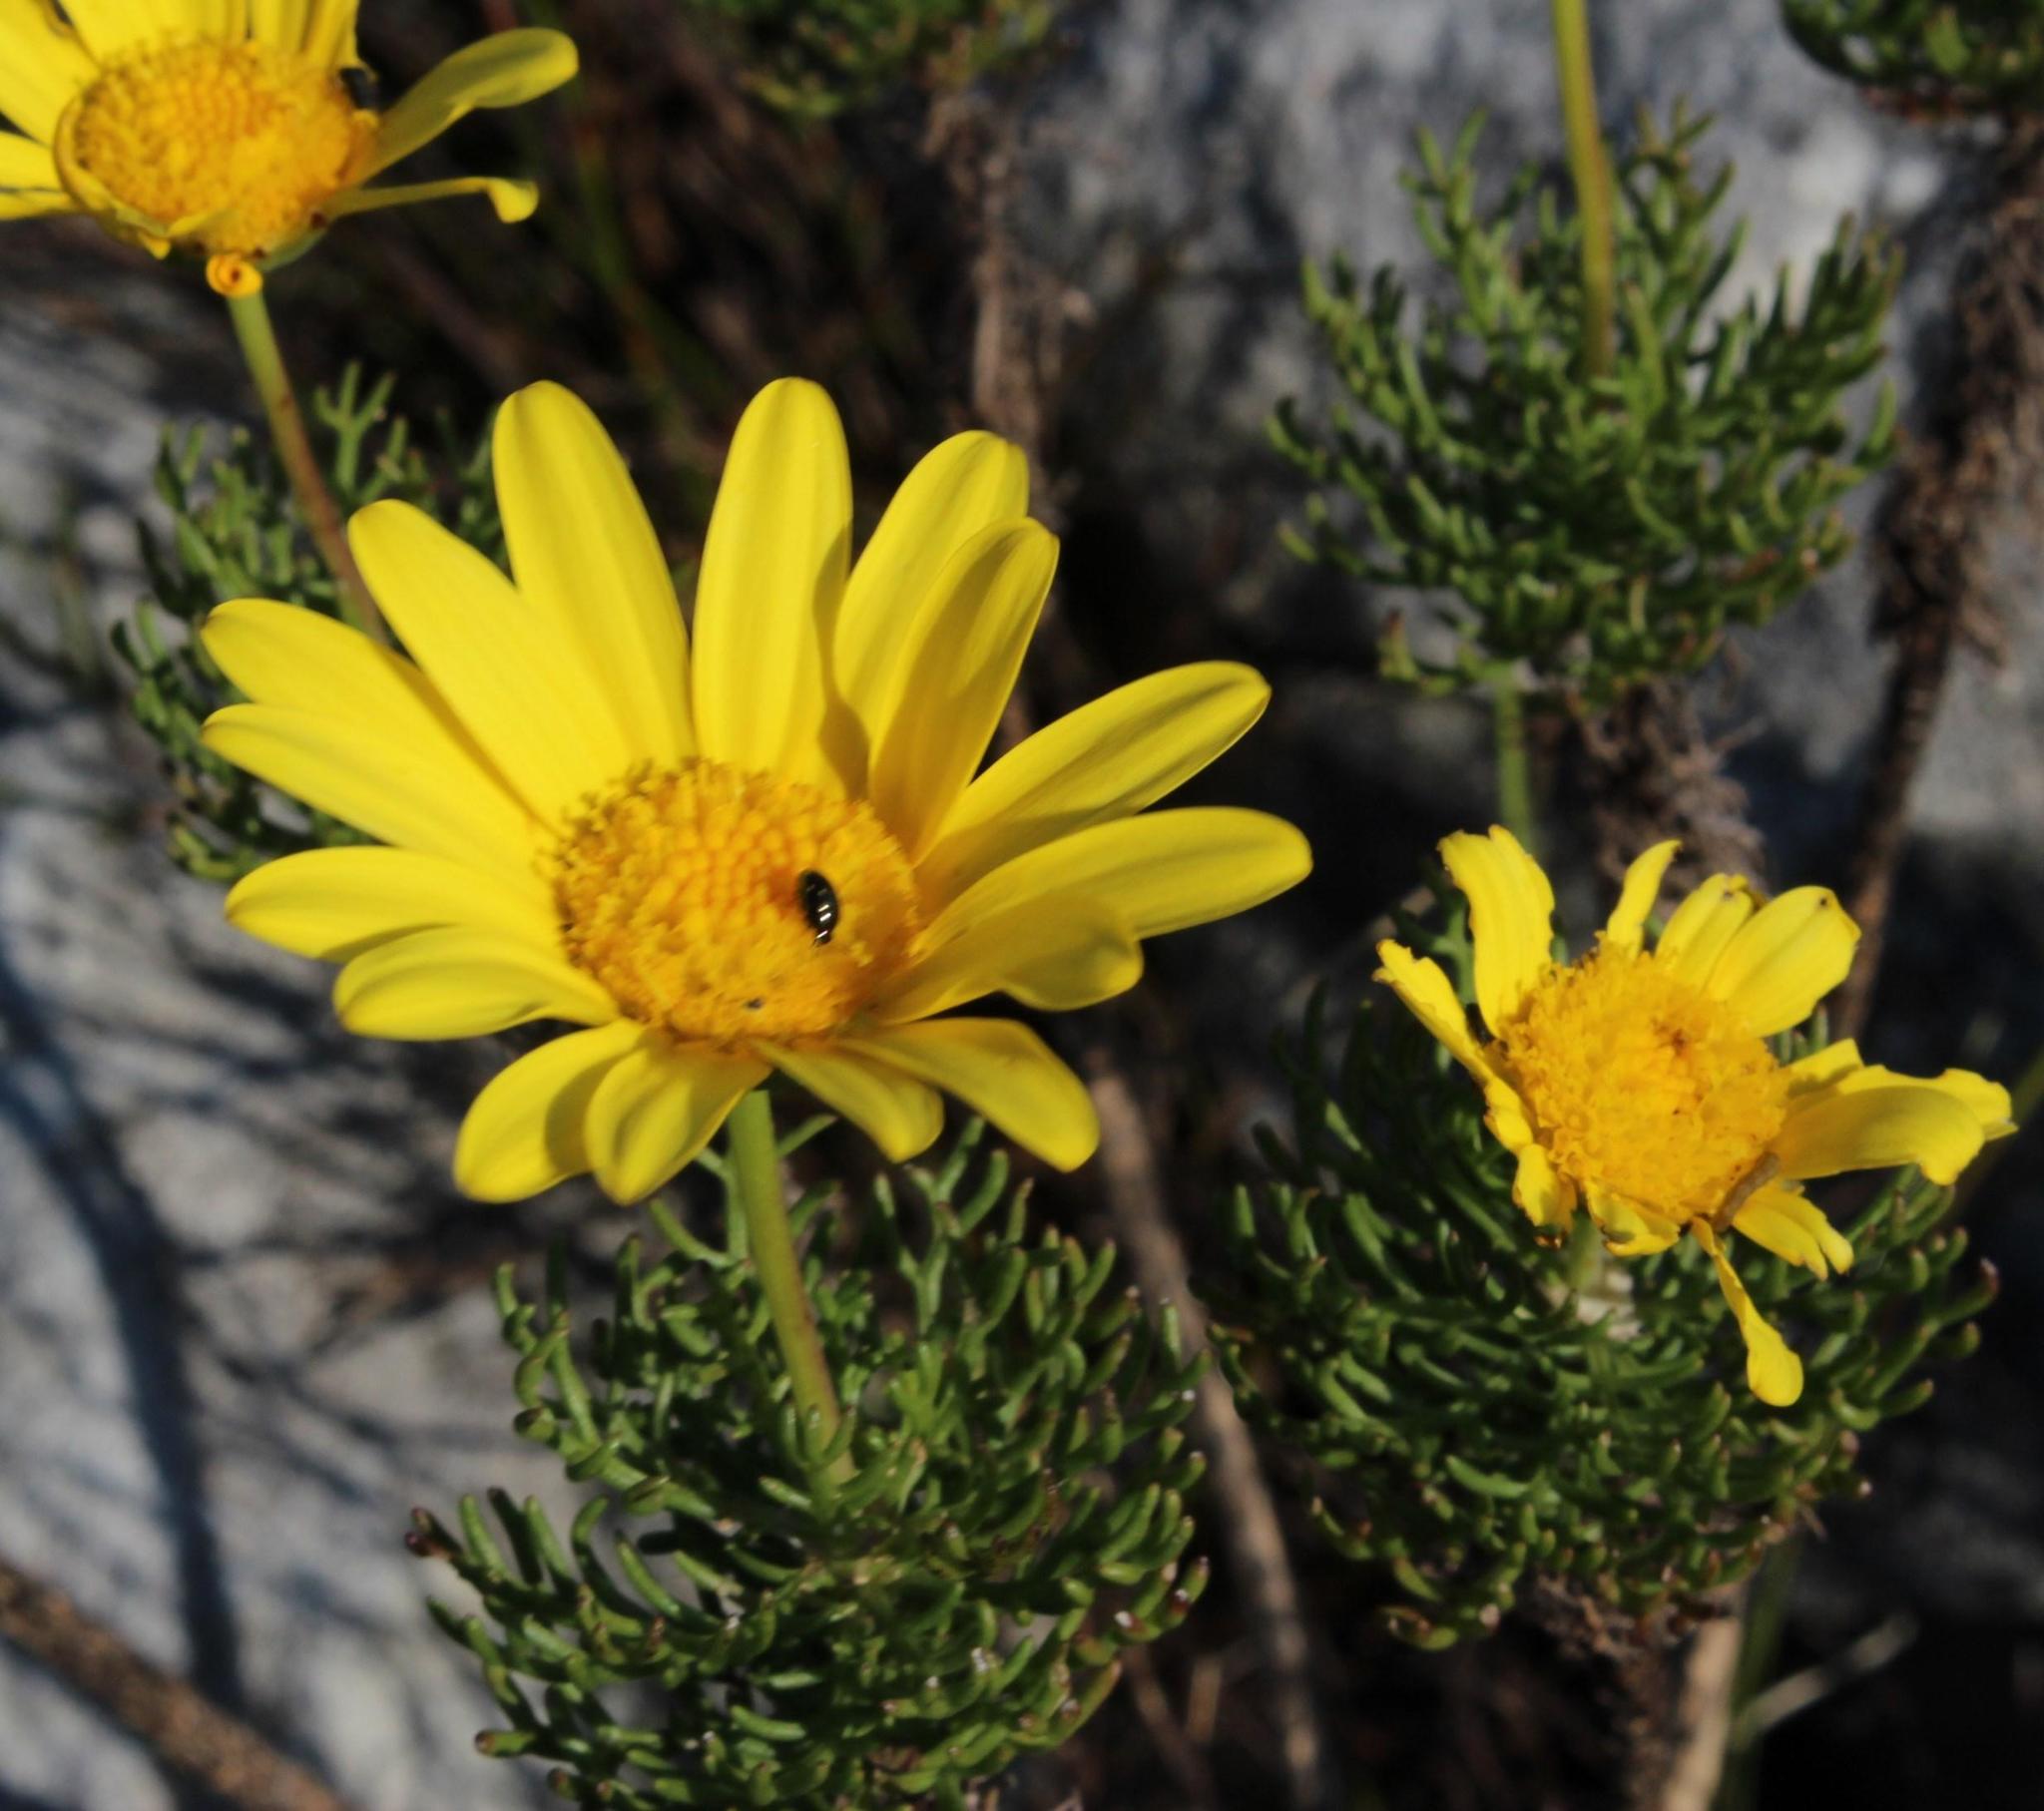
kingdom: Plantae
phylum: Tracheophyta
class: Magnoliopsida
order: Asterales
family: Asteraceae
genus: Euryops
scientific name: Euryops abrotanifolius
